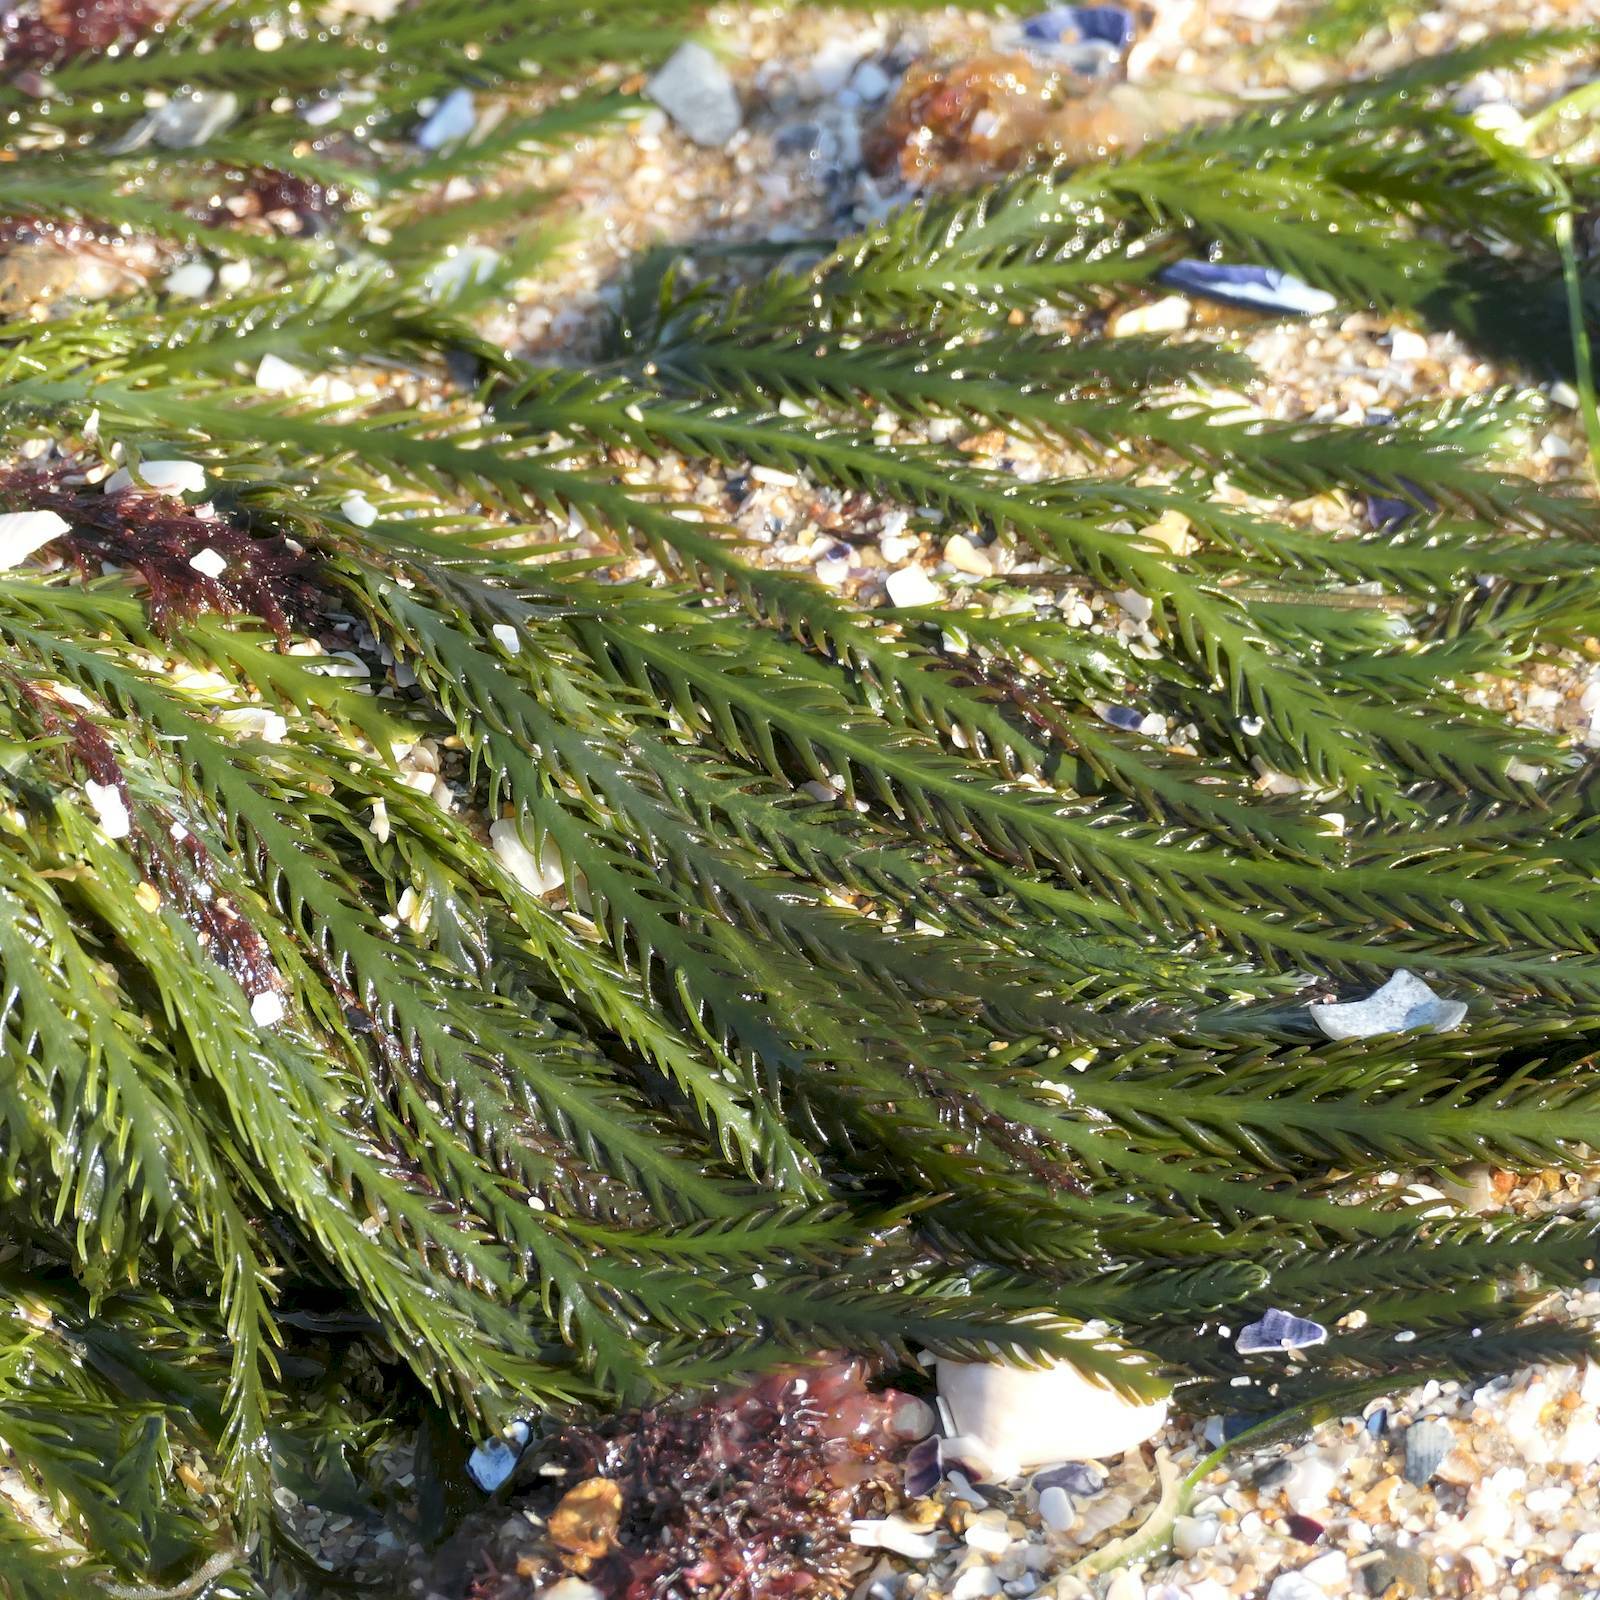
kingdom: Plantae
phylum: Chlorophyta
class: Ulvophyceae
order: Bryopsidales
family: Caulerpaceae
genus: Caulerpa
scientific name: Caulerpa
